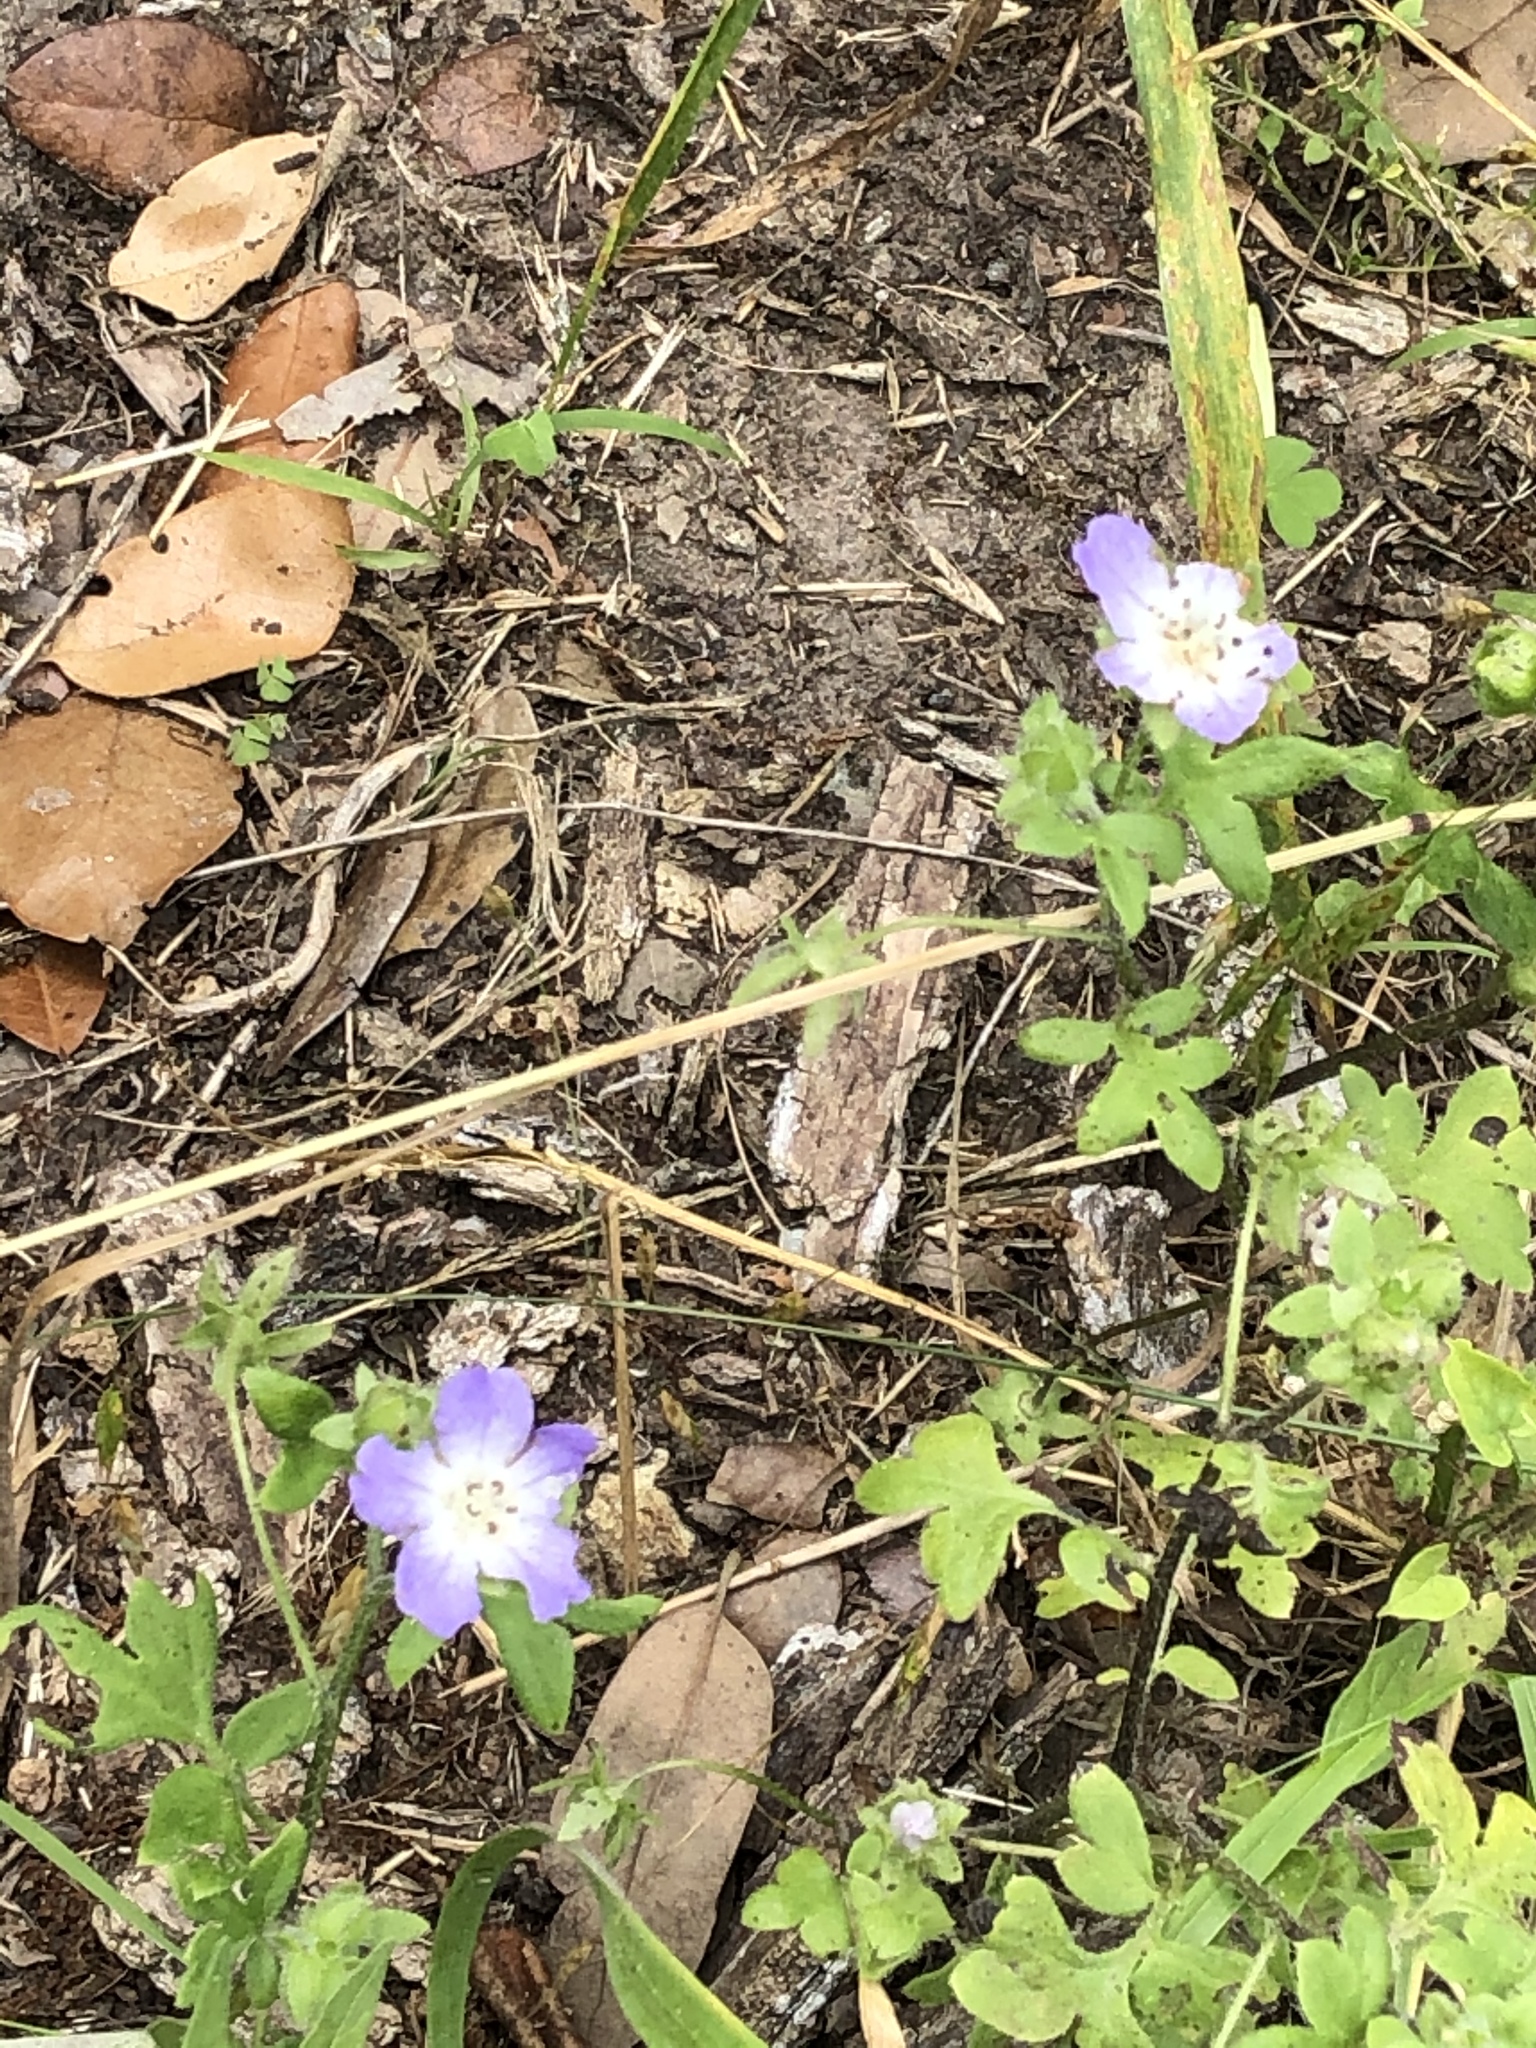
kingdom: Plantae
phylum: Tracheophyta
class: Magnoliopsida
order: Boraginales
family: Hydrophyllaceae
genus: Nemophila
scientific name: Nemophila phacelioides
